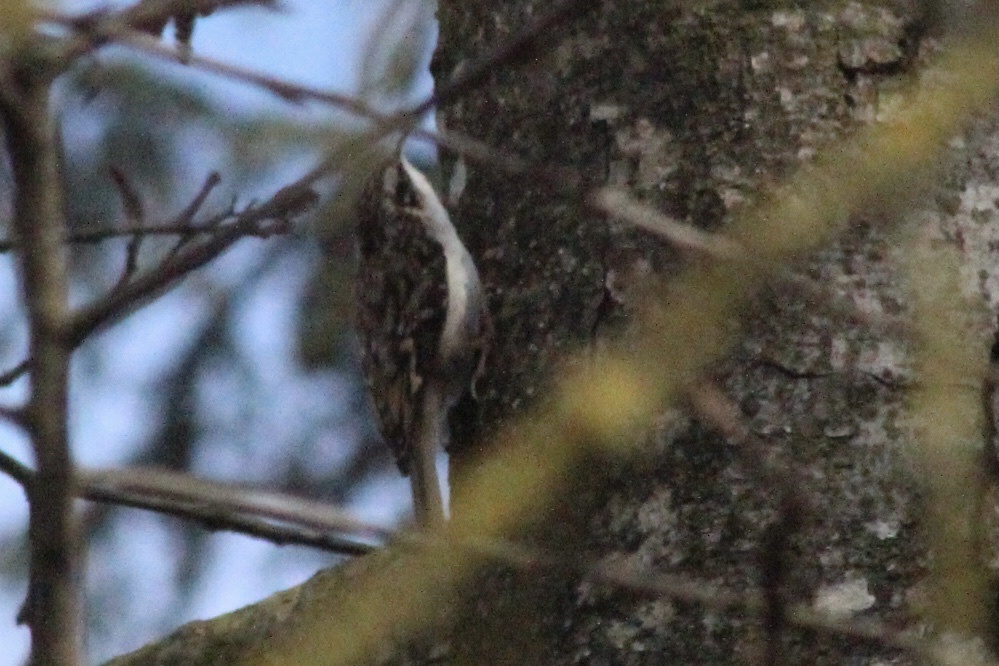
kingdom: Animalia
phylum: Chordata
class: Aves
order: Passeriformes
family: Certhiidae
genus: Certhia
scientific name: Certhia americana
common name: Brown creeper
